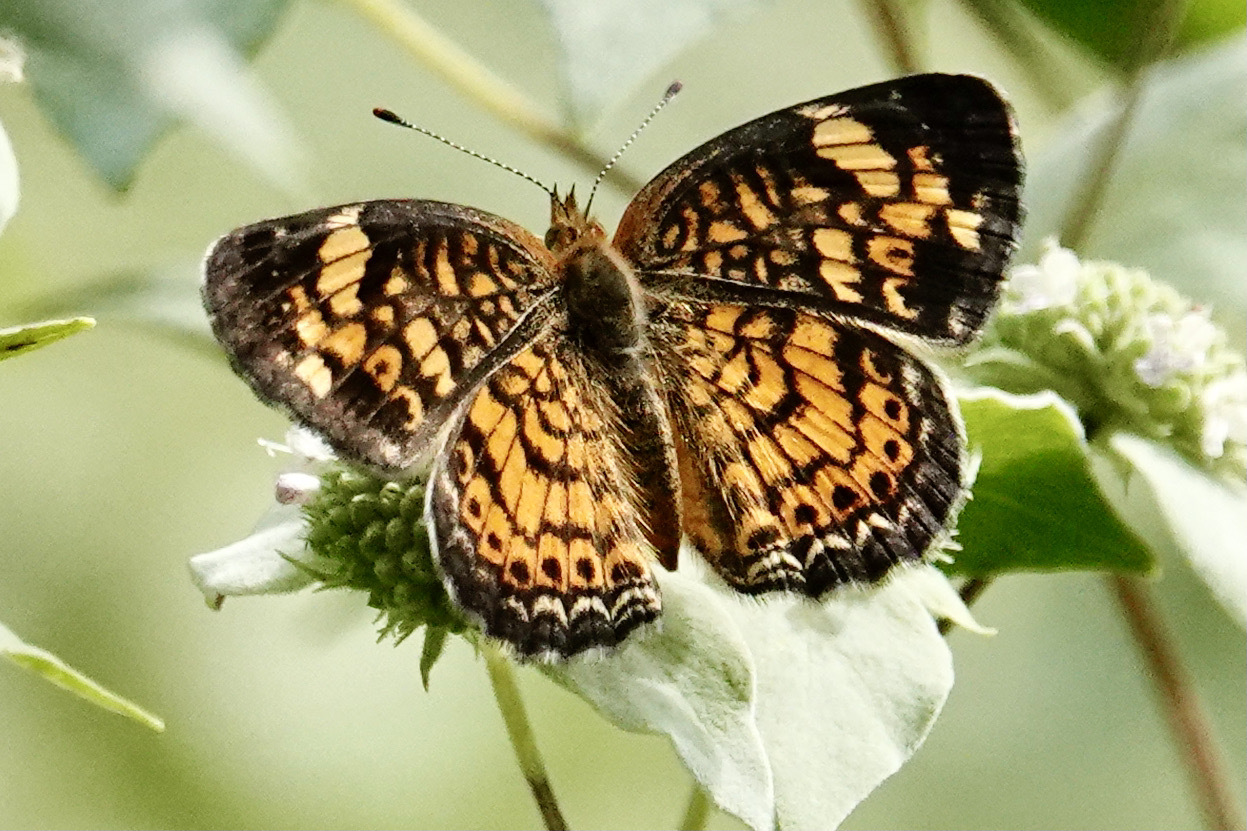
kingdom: Animalia
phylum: Arthropoda
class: Insecta
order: Lepidoptera
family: Nymphalidae
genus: Phyciodes
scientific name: Phyciodes tharos
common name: Pearl crescent
